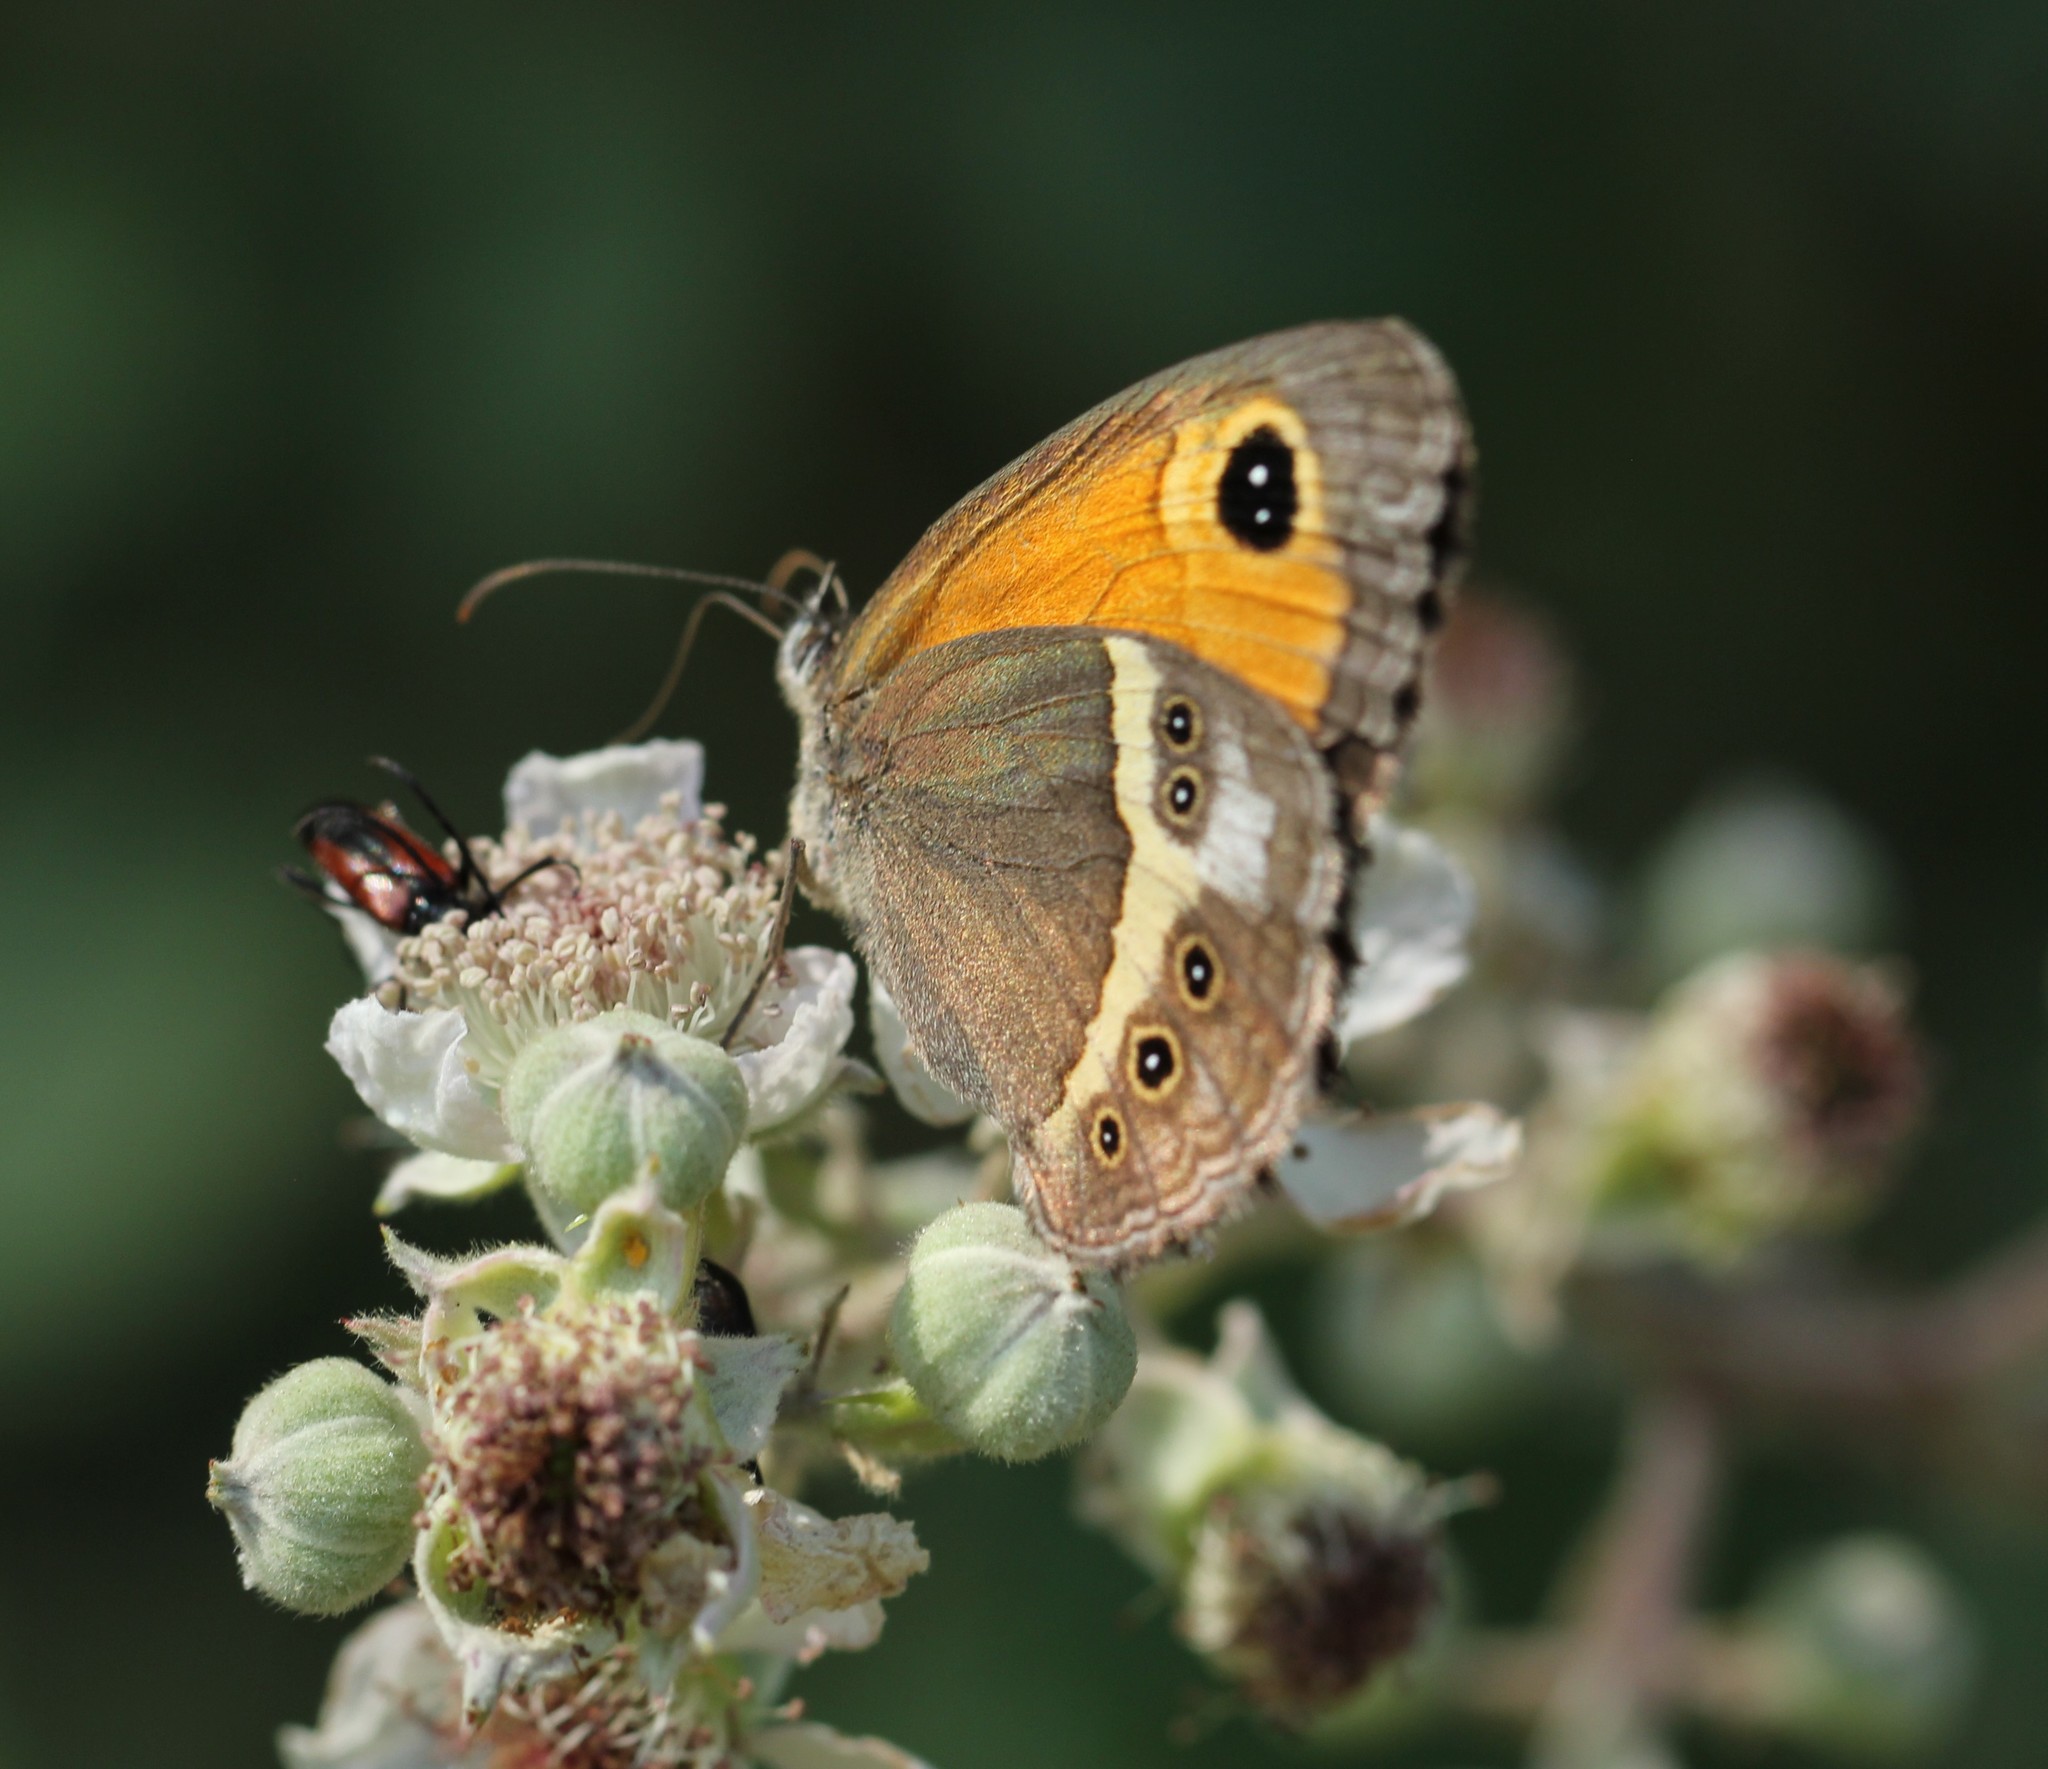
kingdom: Animalia
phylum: Arthropoda
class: Insecta
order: Lepidoptera
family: Nymphalidae
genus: Pyronia
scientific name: Pyronia bathseba
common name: Spanish gatekeeper
